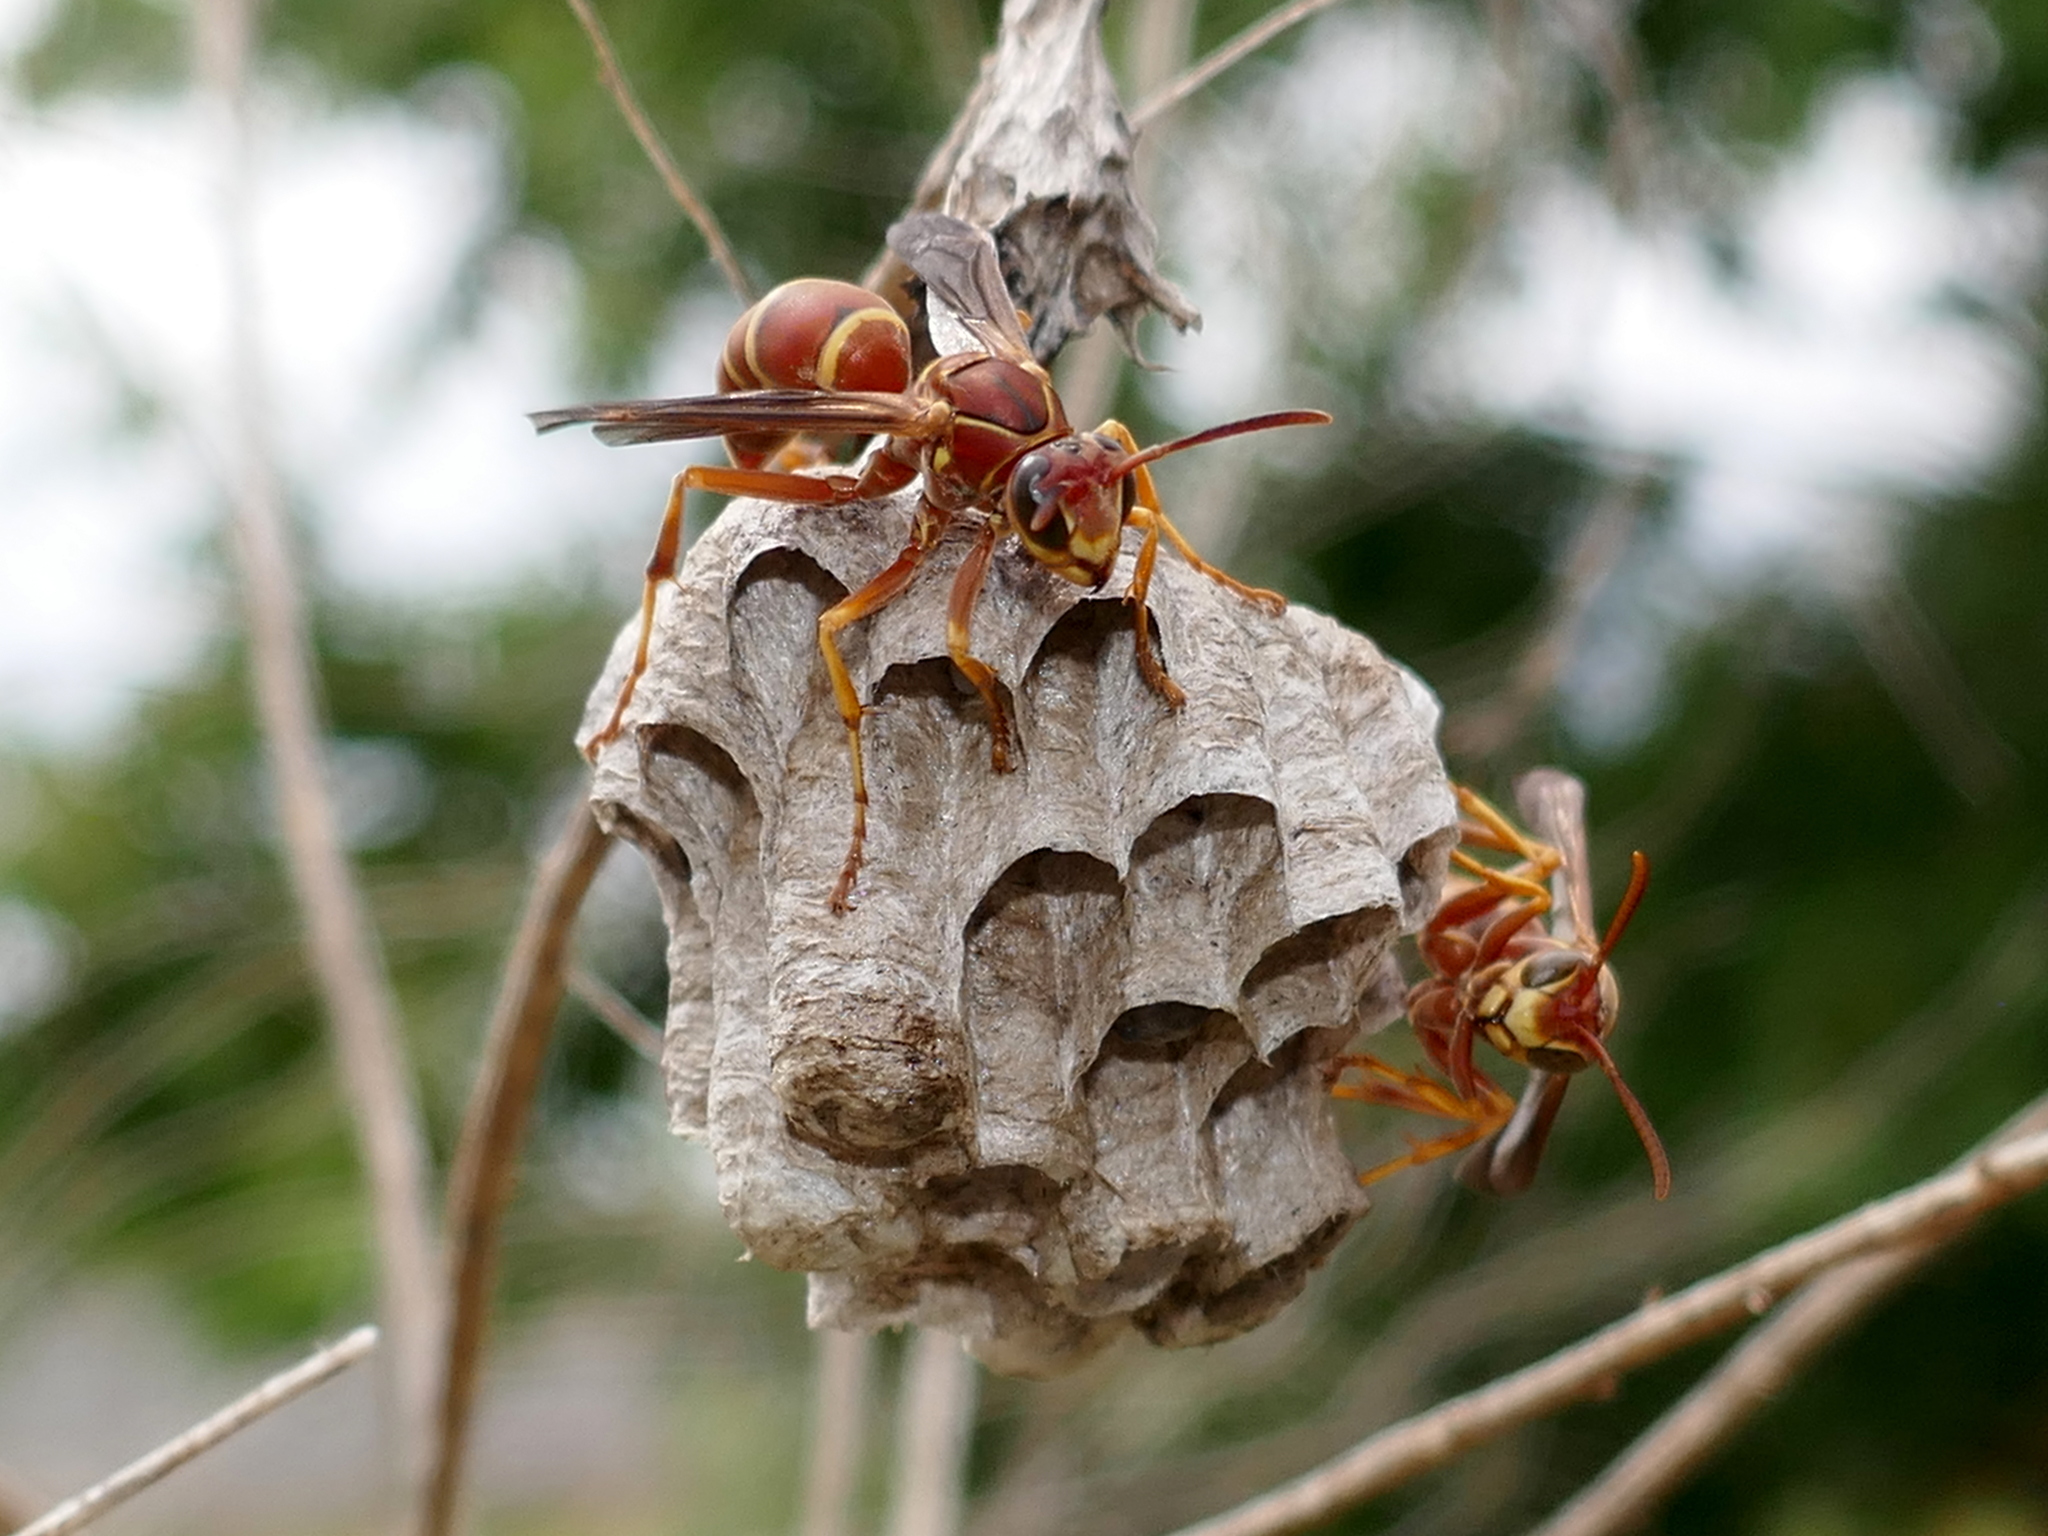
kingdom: Animalia
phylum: Arthropoda
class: Insecta
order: Hymenoptera
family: Eumenidae
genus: Polistes
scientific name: Polistes bellicosus
